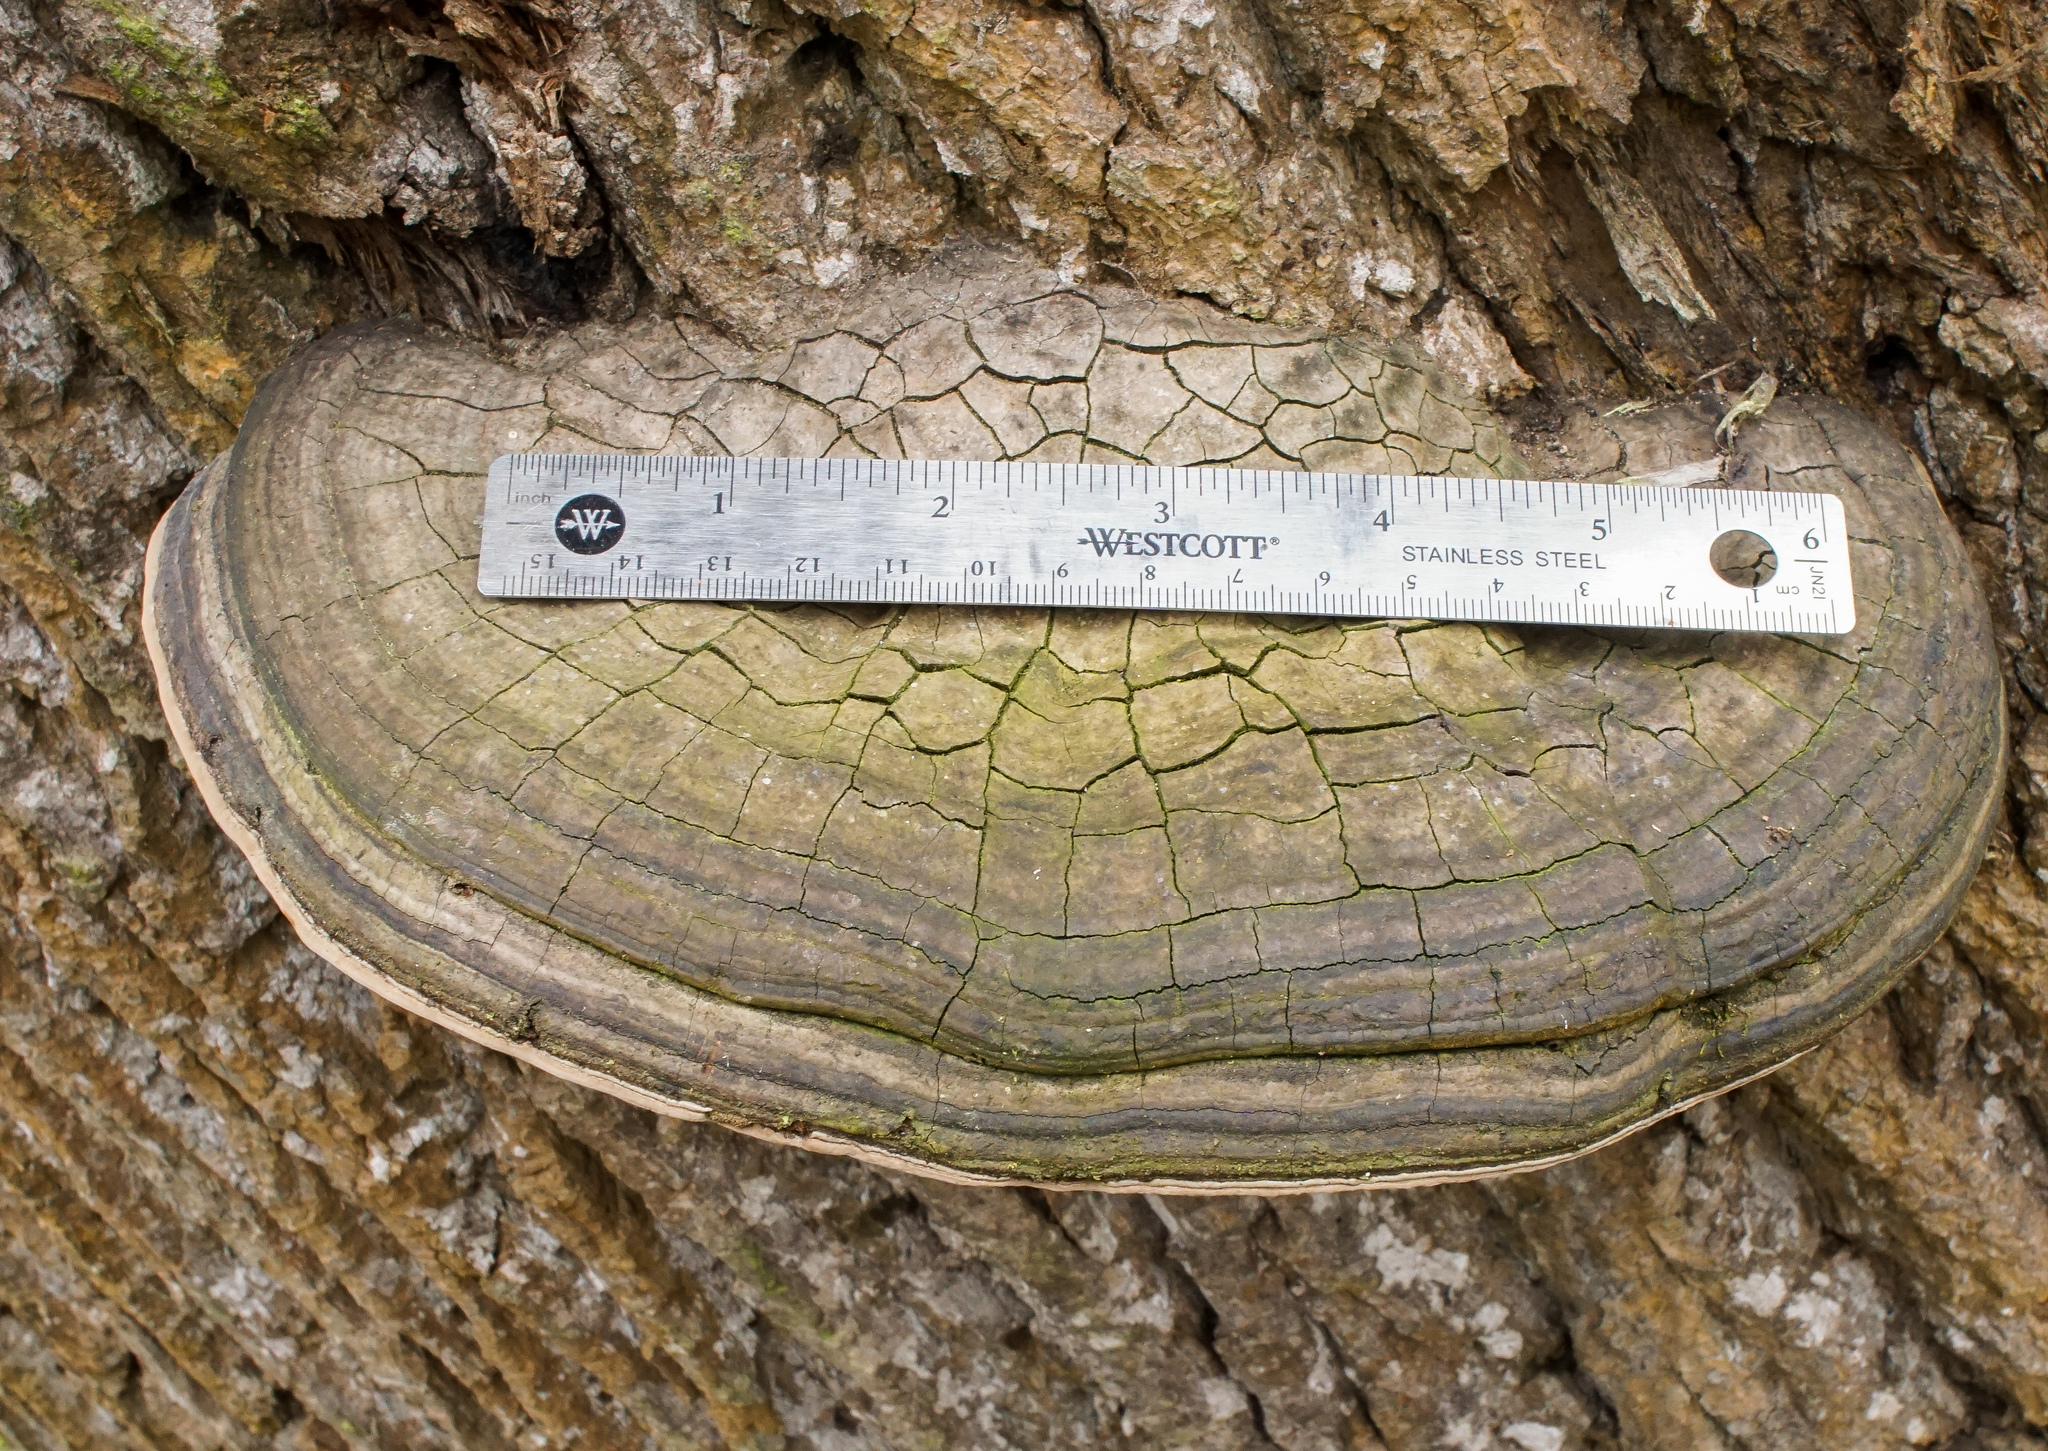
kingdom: Fungi
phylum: Basidiomycota
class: Agaricomycetes
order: Polyporales
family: Polyporaceae
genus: Fomes
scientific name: Fomes fasciatus
